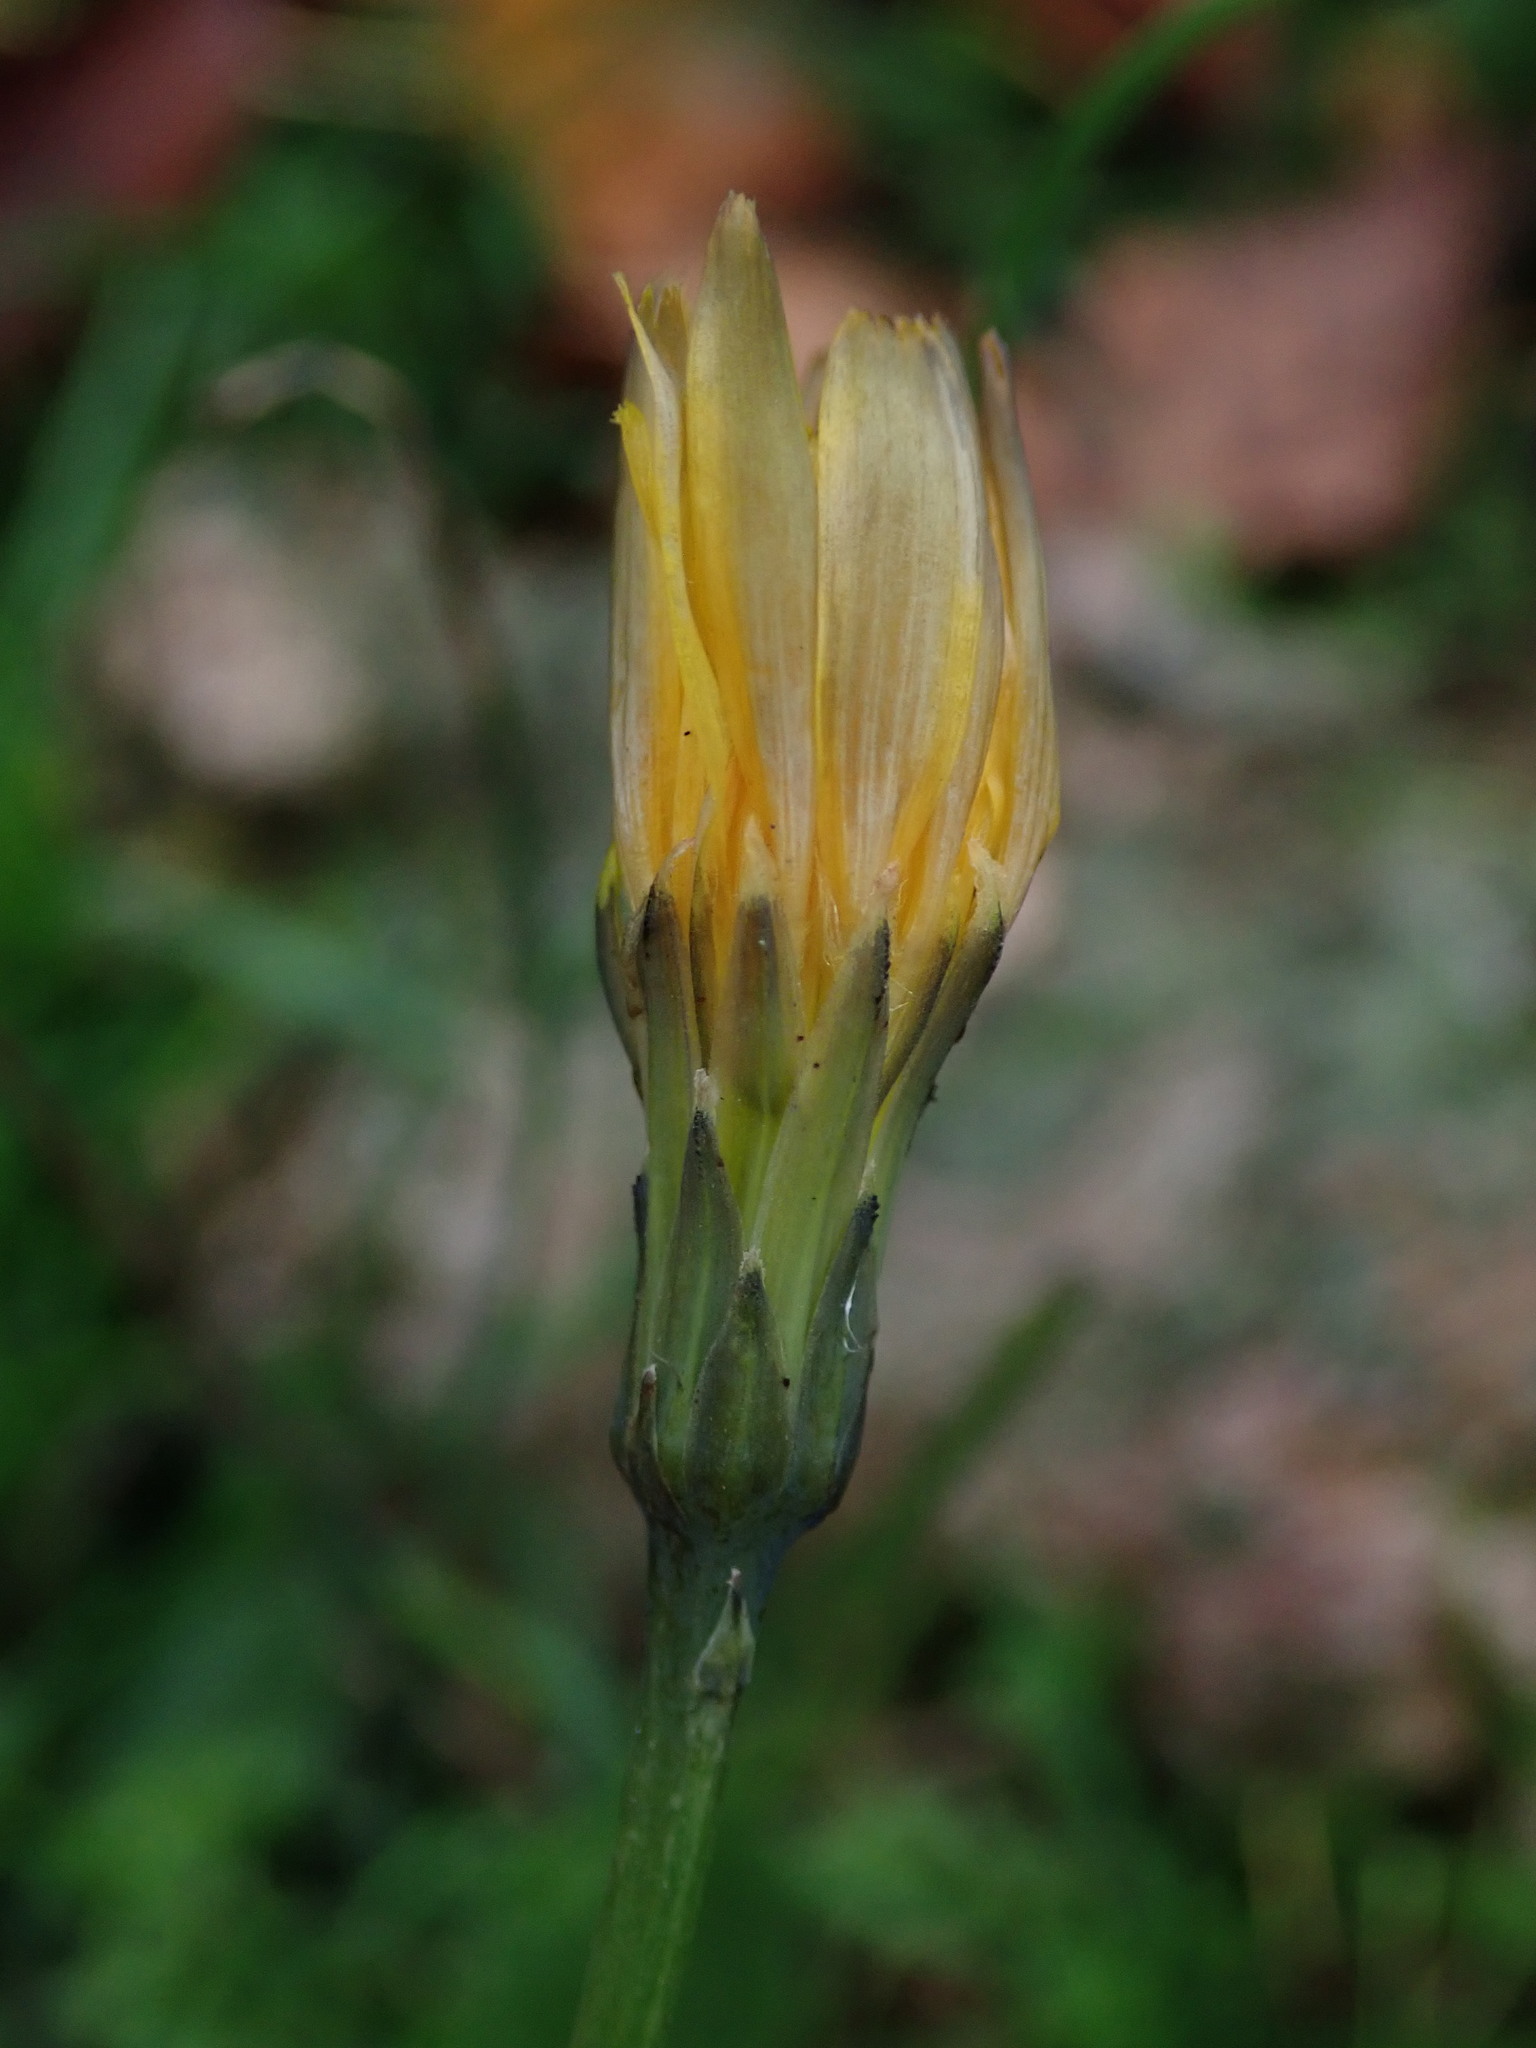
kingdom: Plantae
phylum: Tracheophyta
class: Magnoliopsida
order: Asterales
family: Asteraceae
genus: Hypochaeris
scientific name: Hypochaeris radicata
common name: Flatweed
